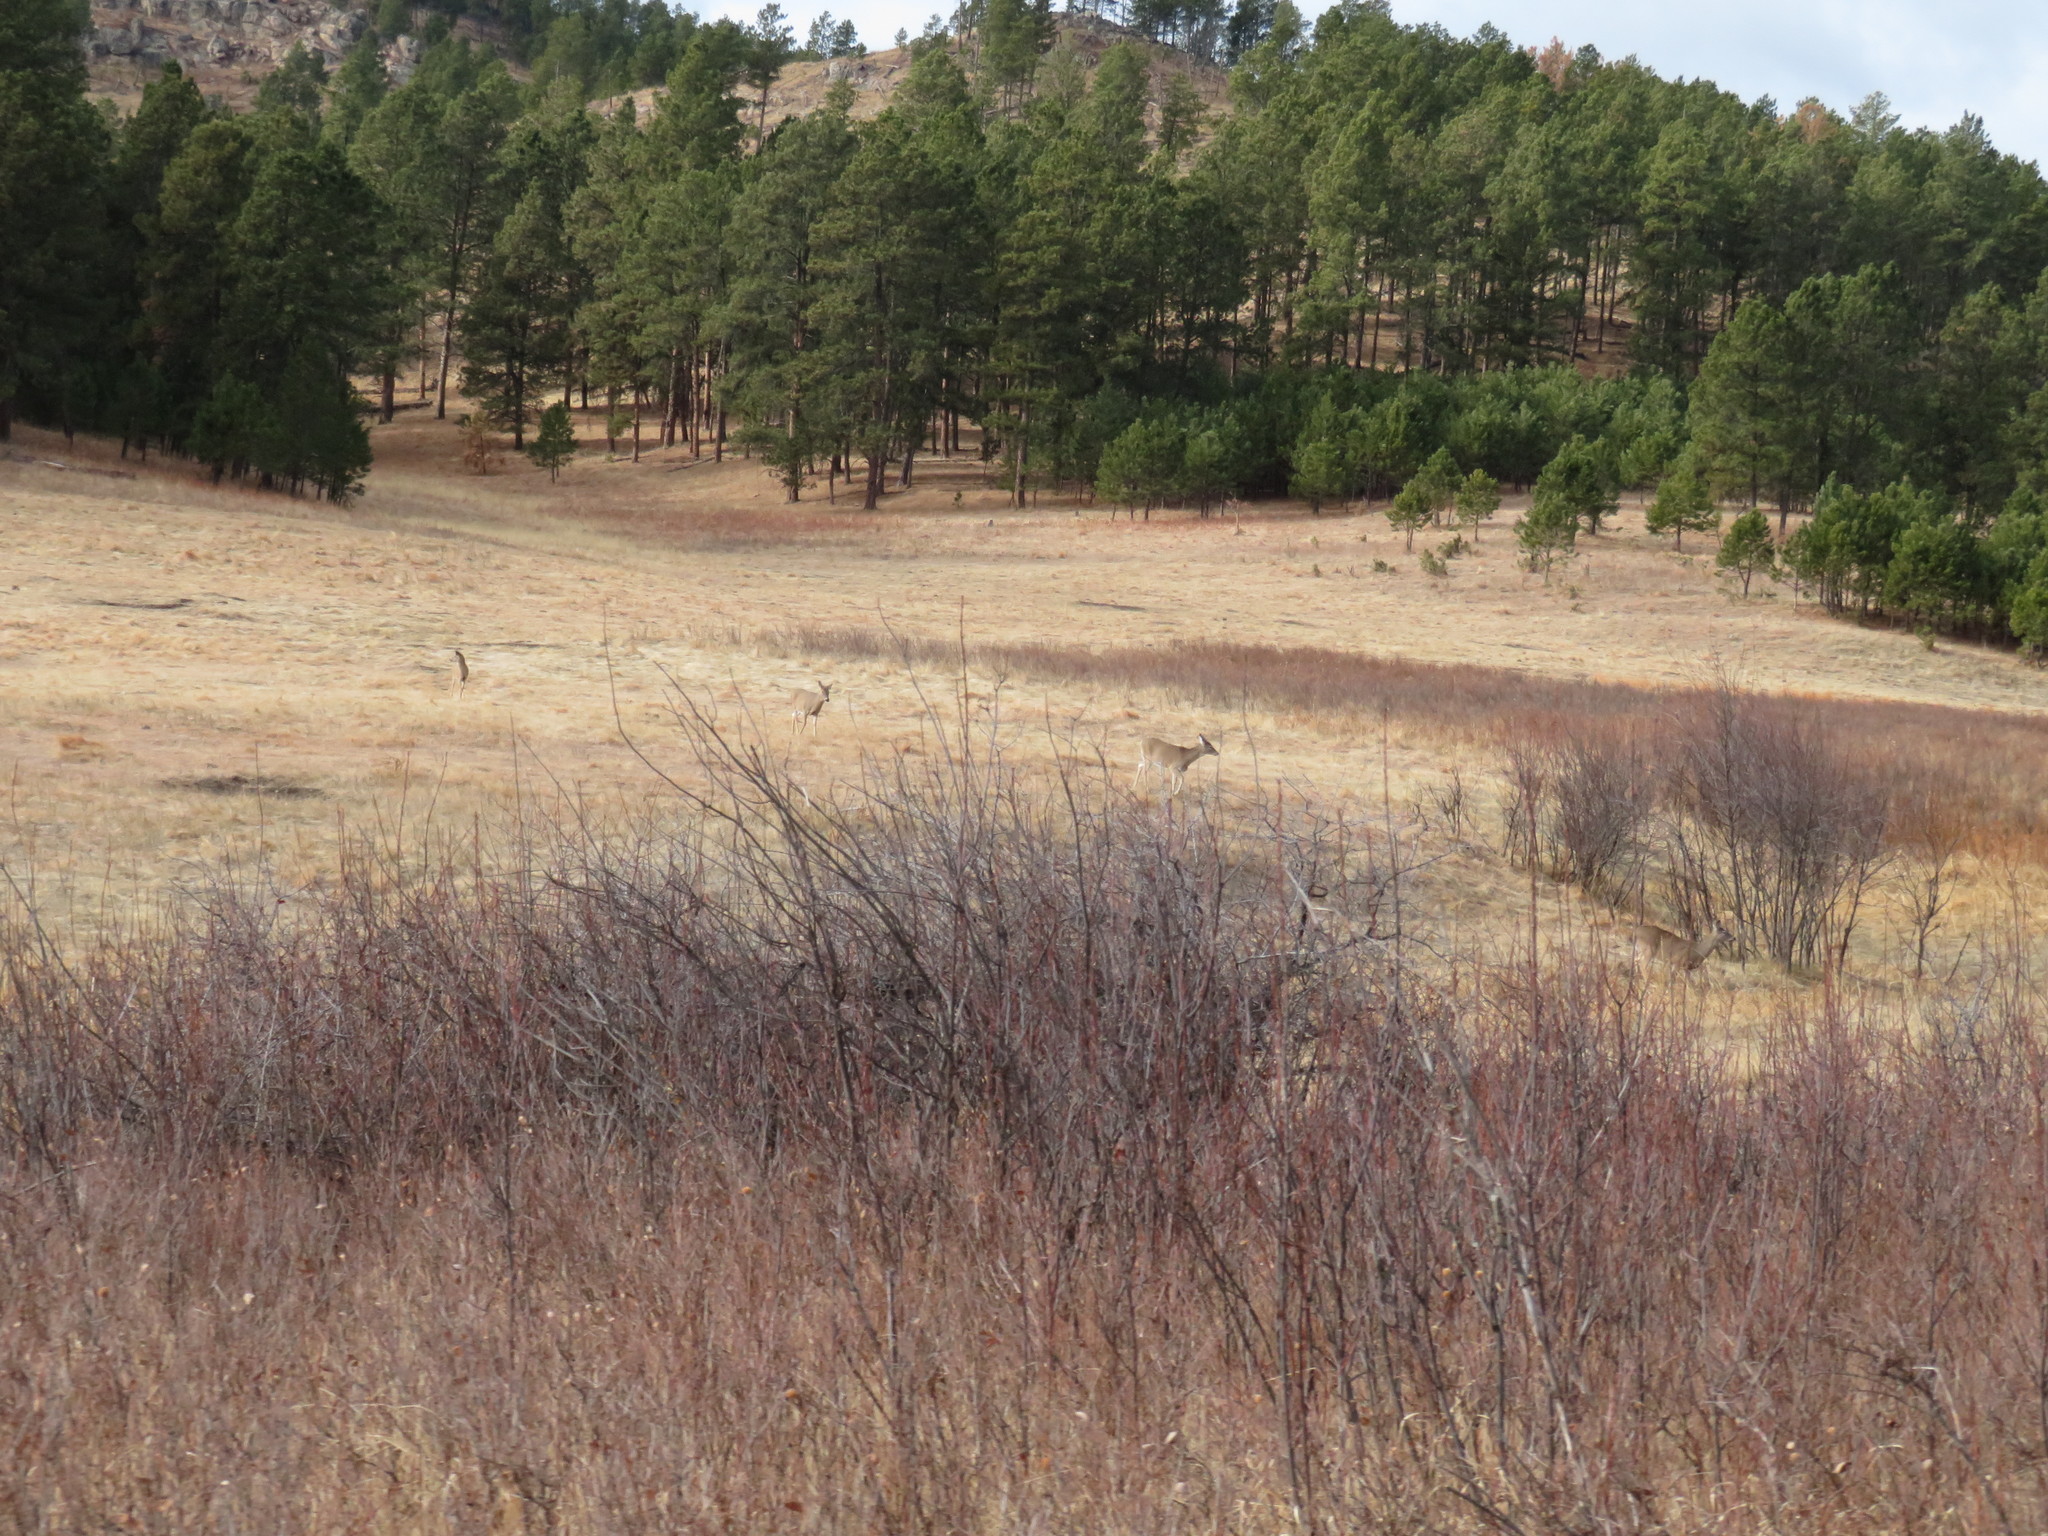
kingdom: Animalia
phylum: Chordata
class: Mammalia
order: Artiodactyla
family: Cervidae
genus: Odocoileus
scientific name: Odocoileus virginianus
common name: White-tailed deer
